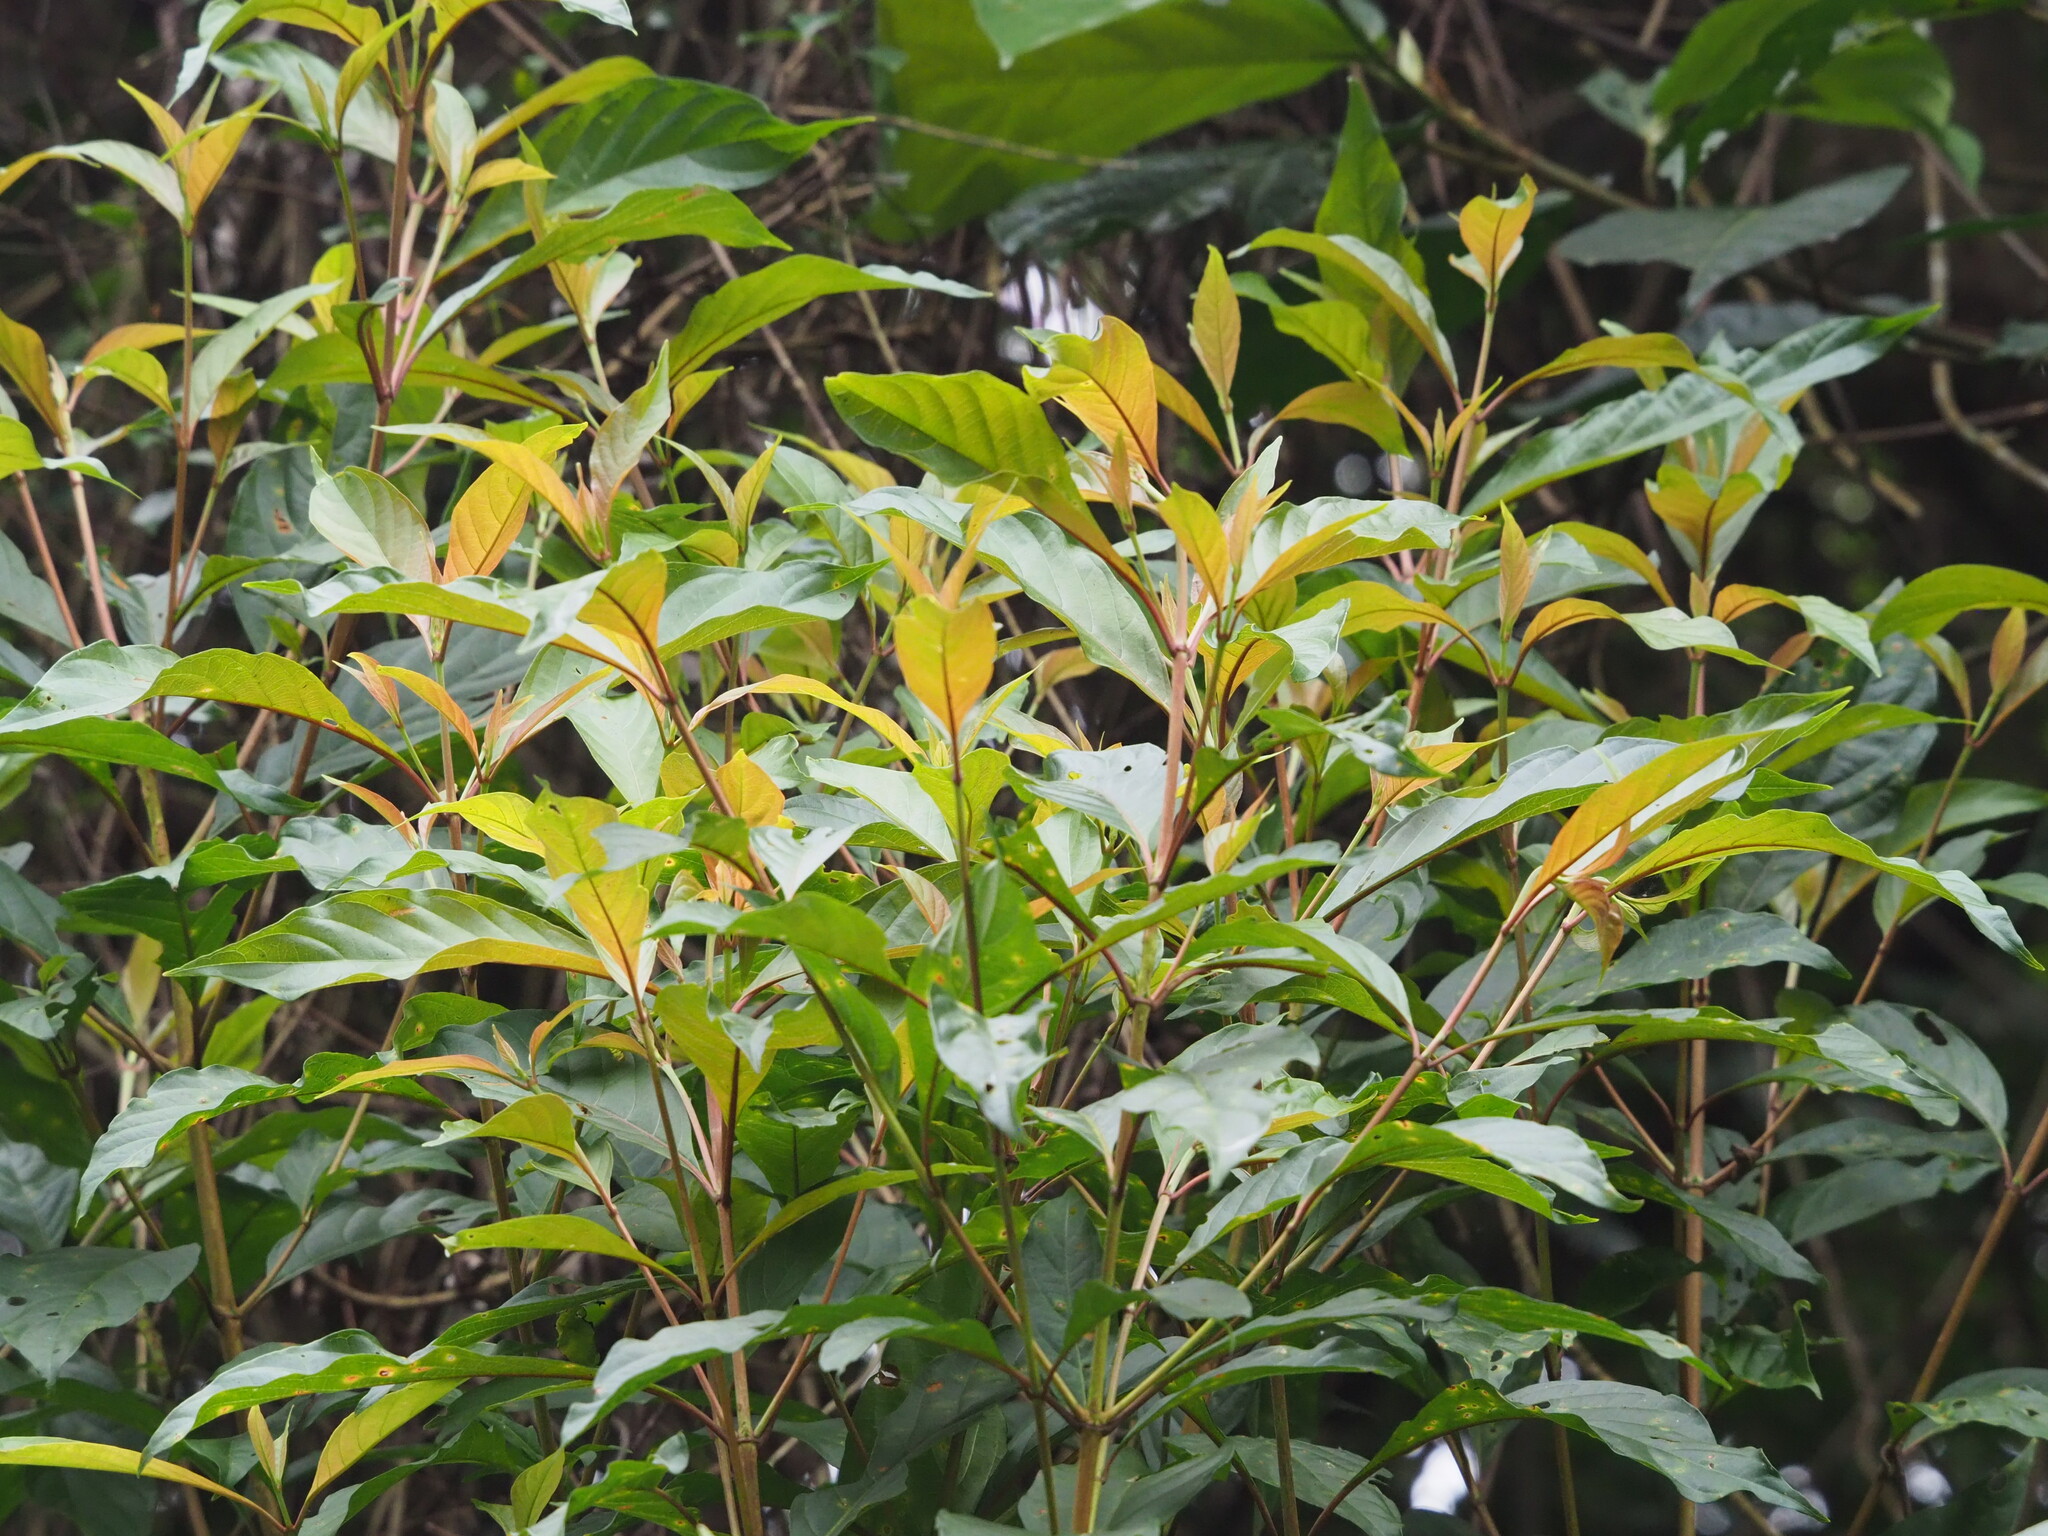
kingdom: Plantae
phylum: Tracheophyta
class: Magnoliopsida
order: Gentianales
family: Rubiaceae
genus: Wendlandia
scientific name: Wendlandia formosana
